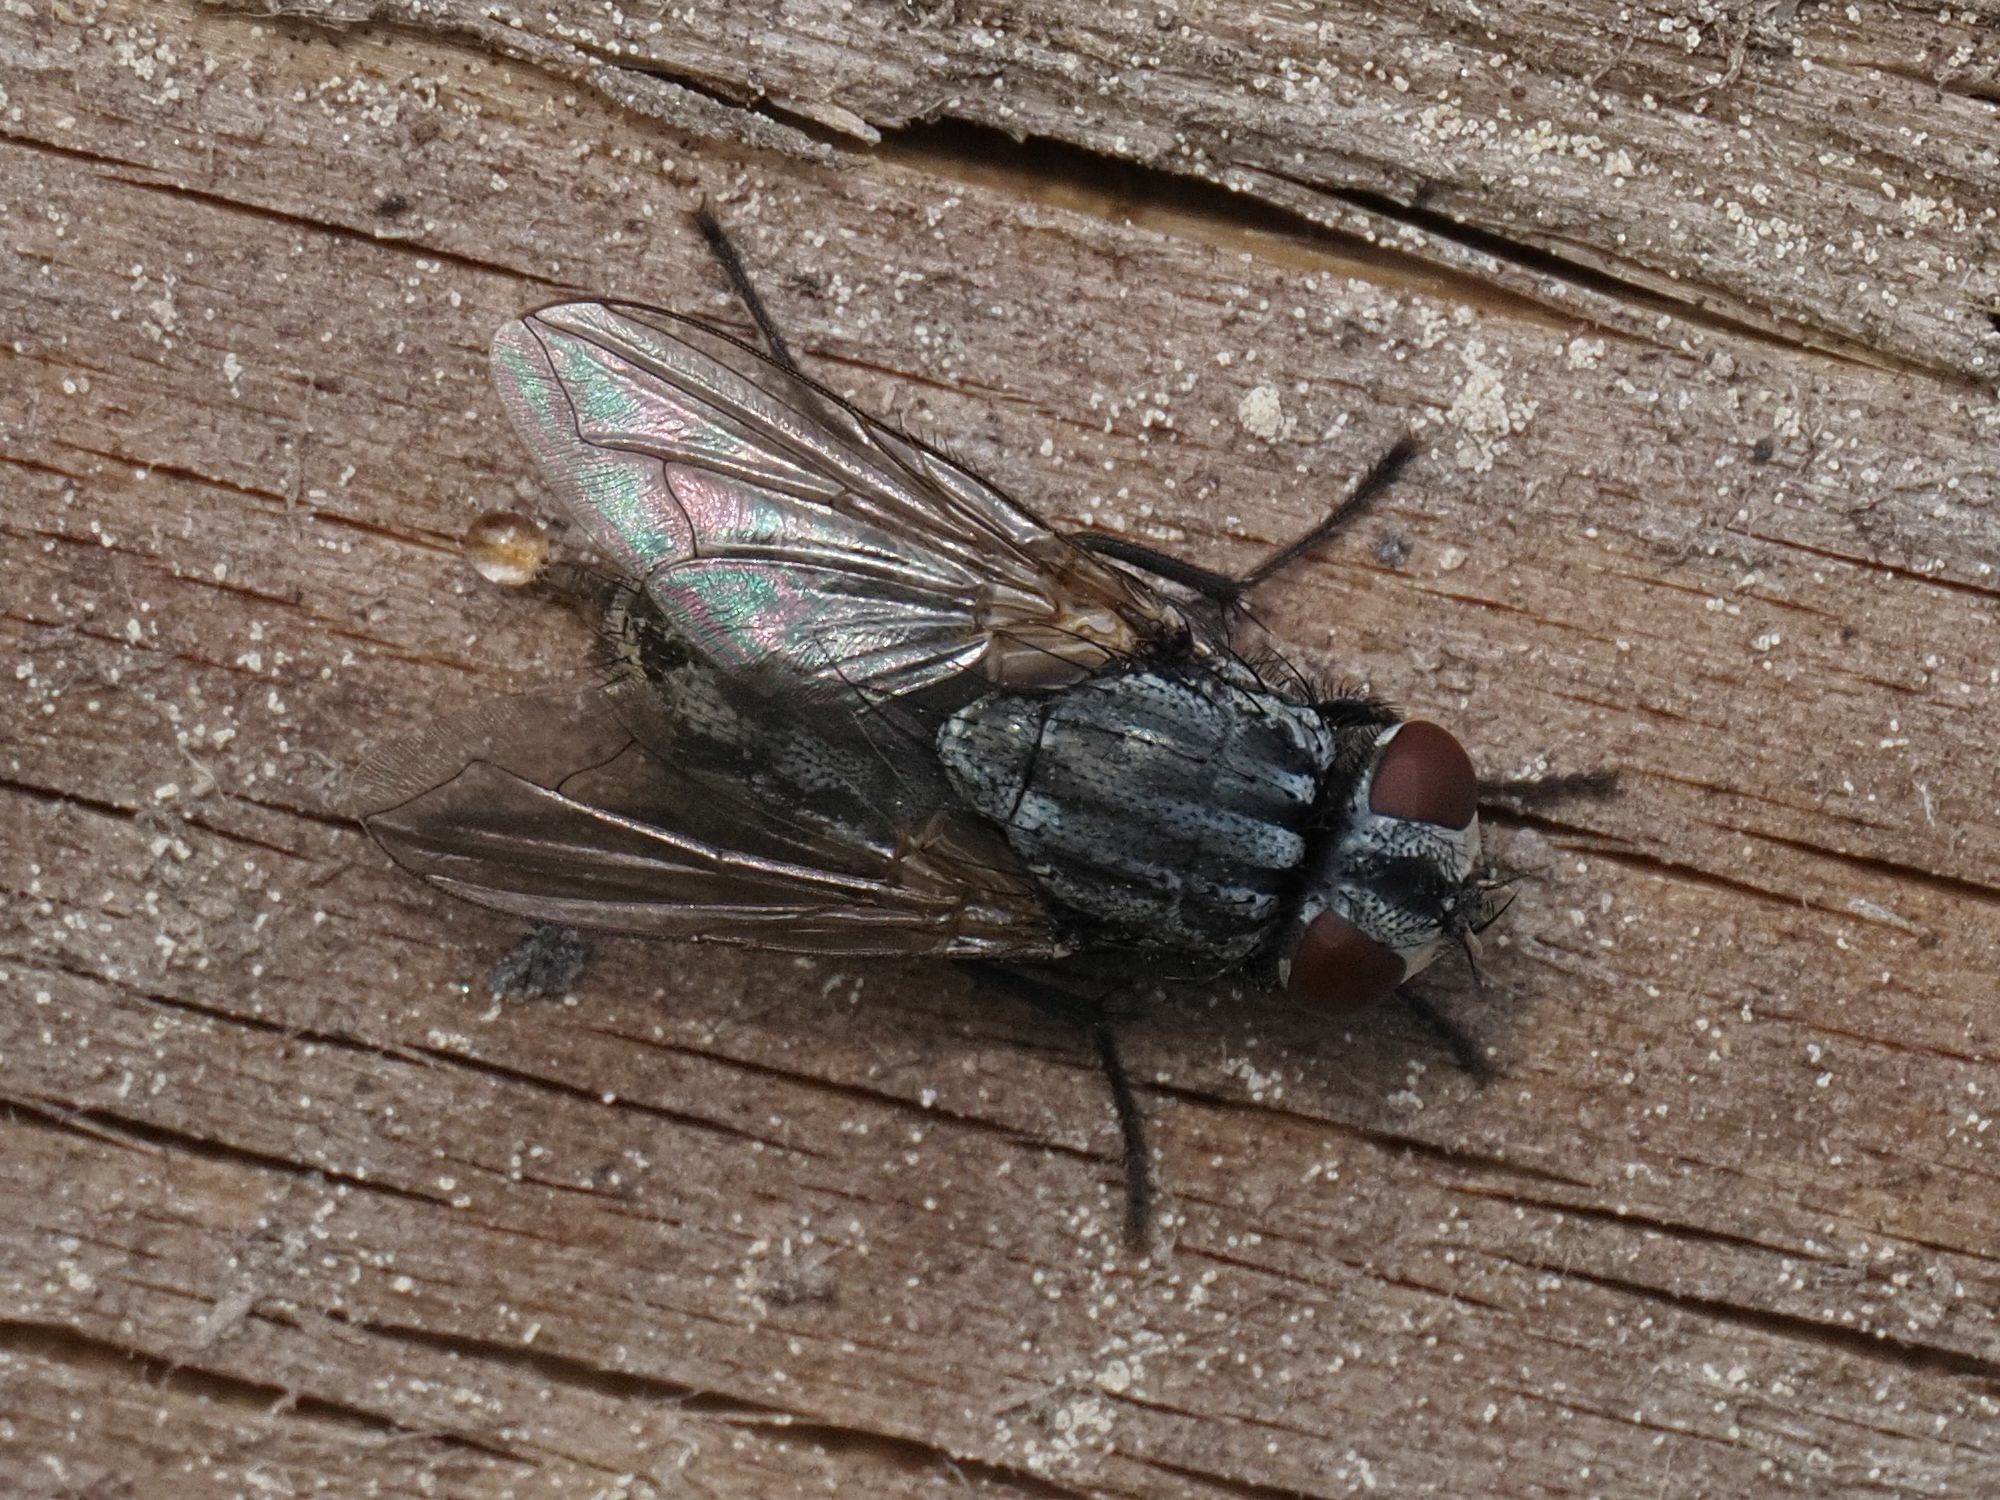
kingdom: Animalia
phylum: Arthropoda
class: Insecta
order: Diptera
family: Muscidae
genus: Musca
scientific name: Musca autumnalis
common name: Face fly
